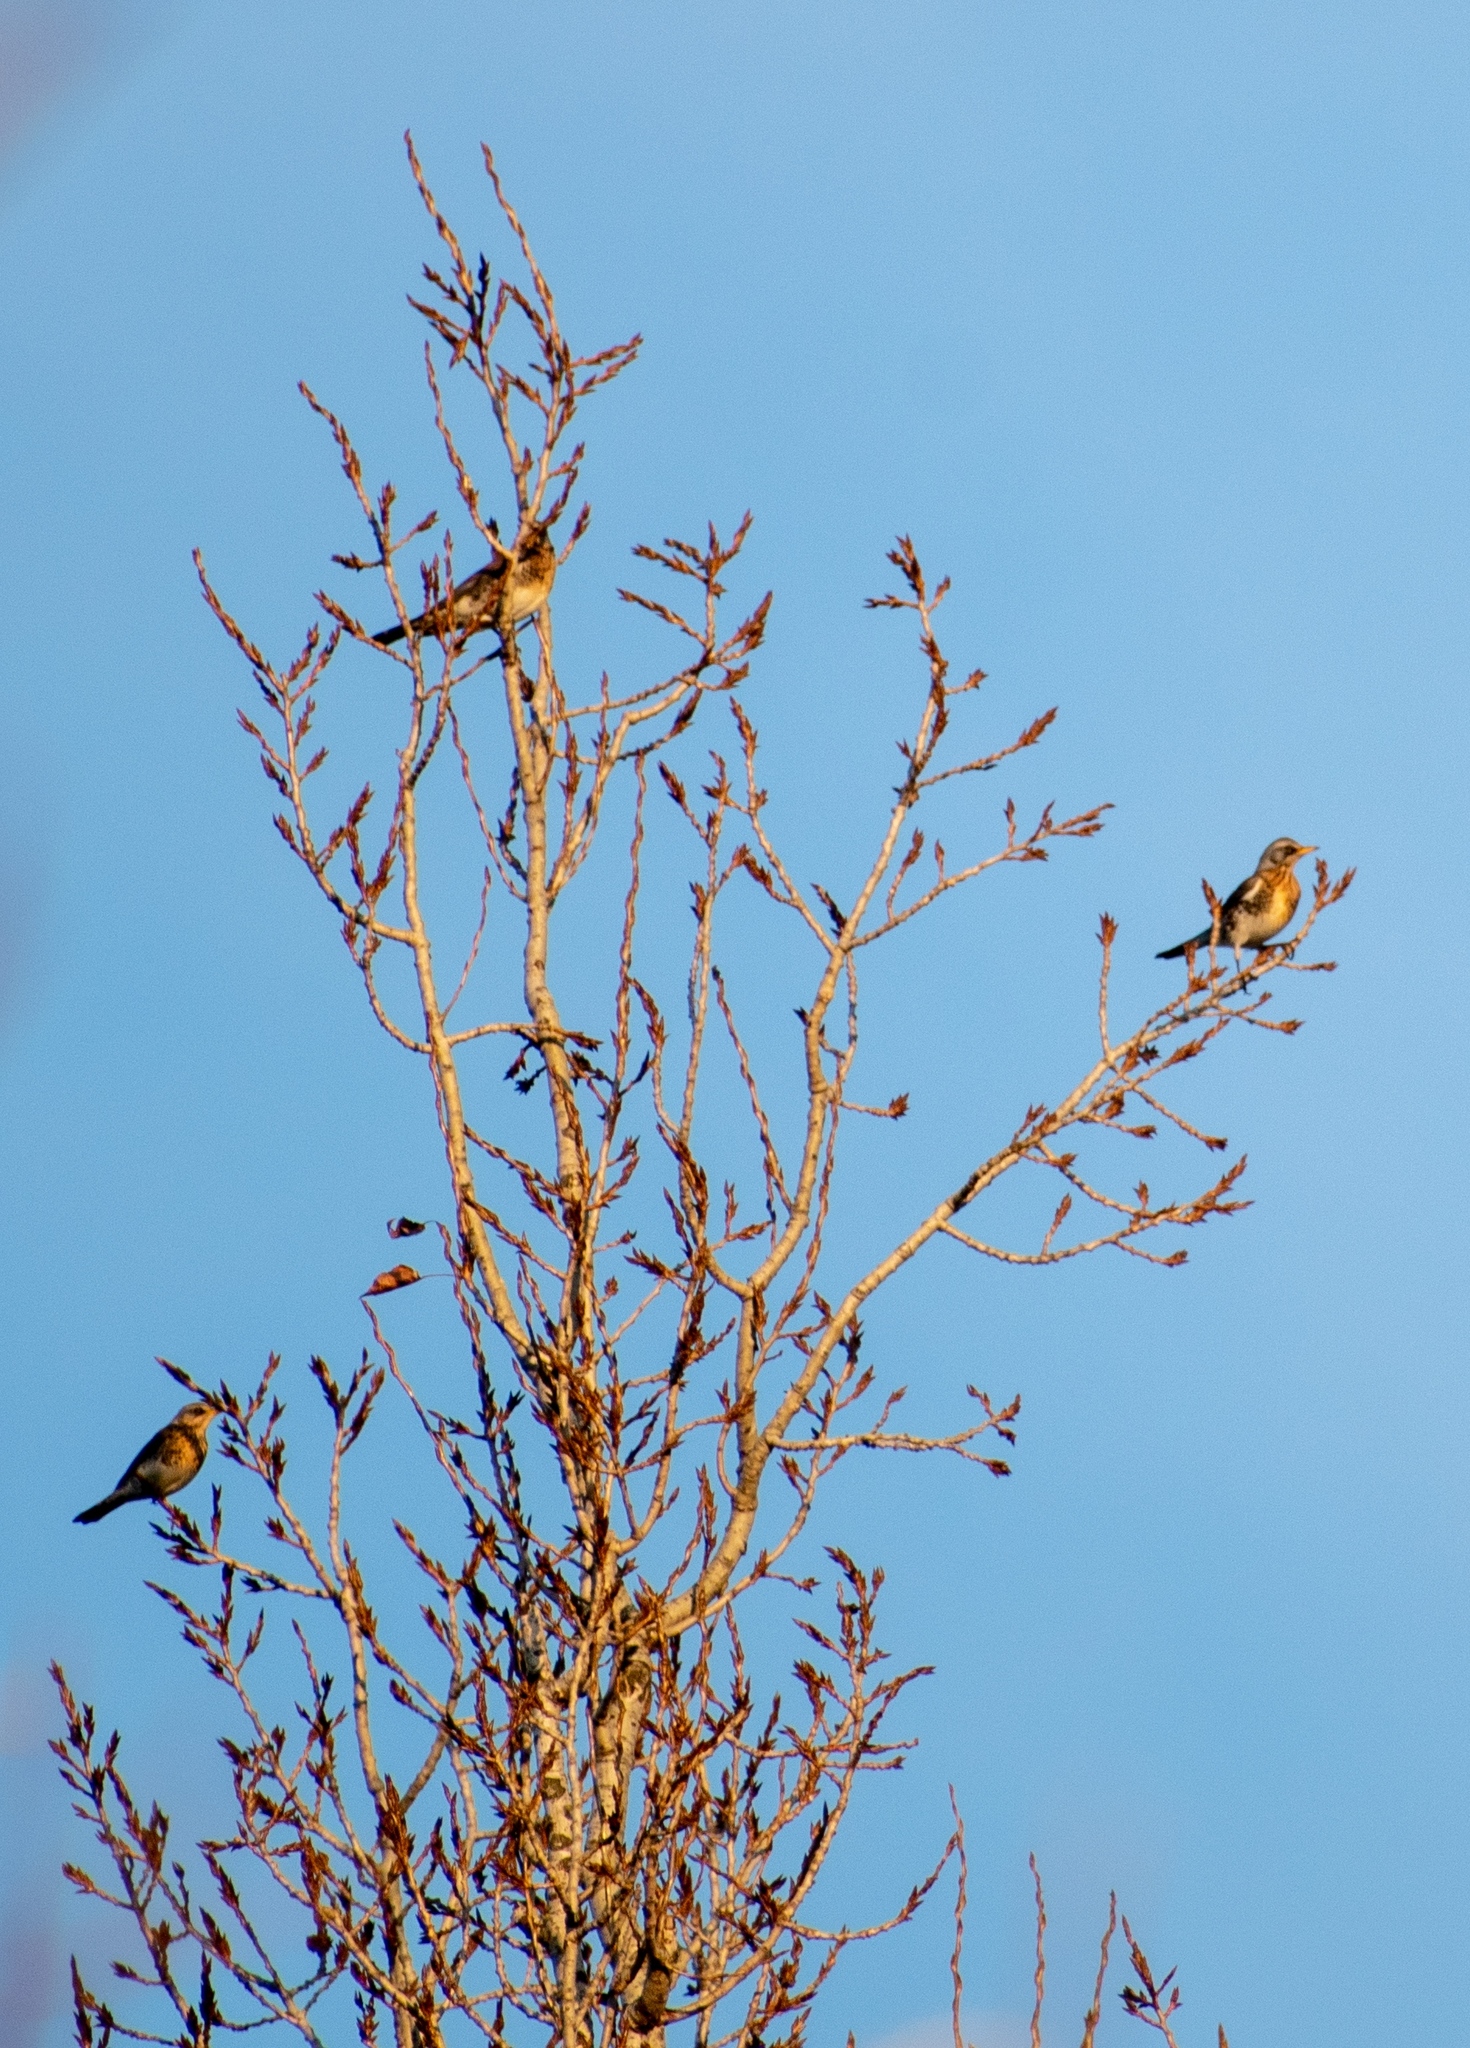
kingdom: Animalia
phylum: Chordata
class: Aves
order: Passeriformes
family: Turdidae
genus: Turdus
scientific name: Turdus pilaris
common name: Fieldfare
